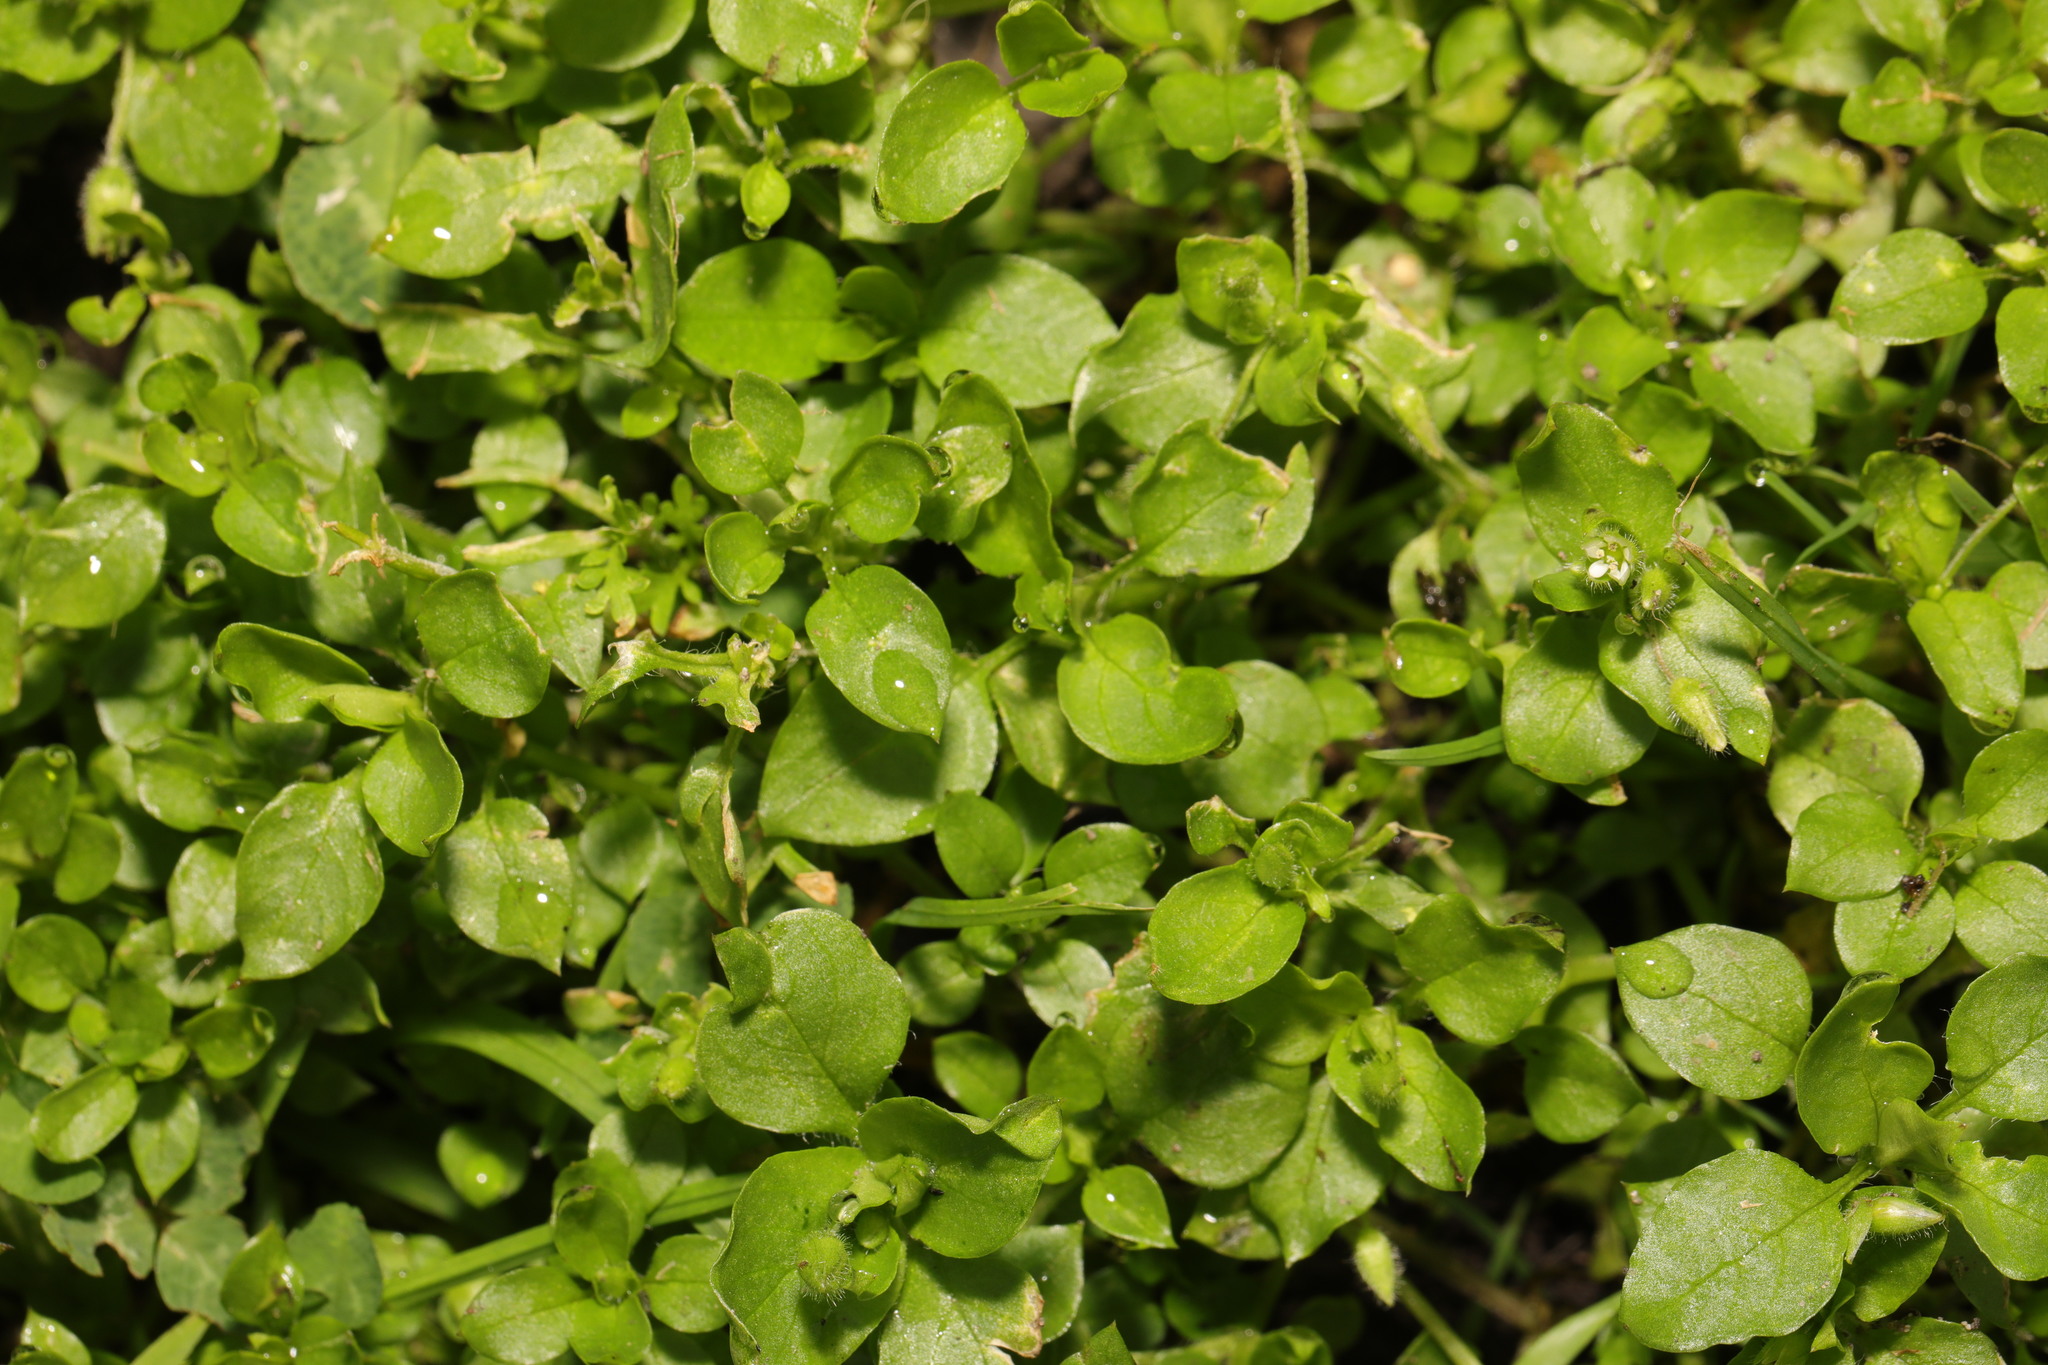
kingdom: Plantae
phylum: Tracheophyta
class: Magnoliopsida
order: Caryophyllales
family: Caryophyllaceae
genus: Stellaria
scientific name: Stellaria media
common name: Common chickweed
